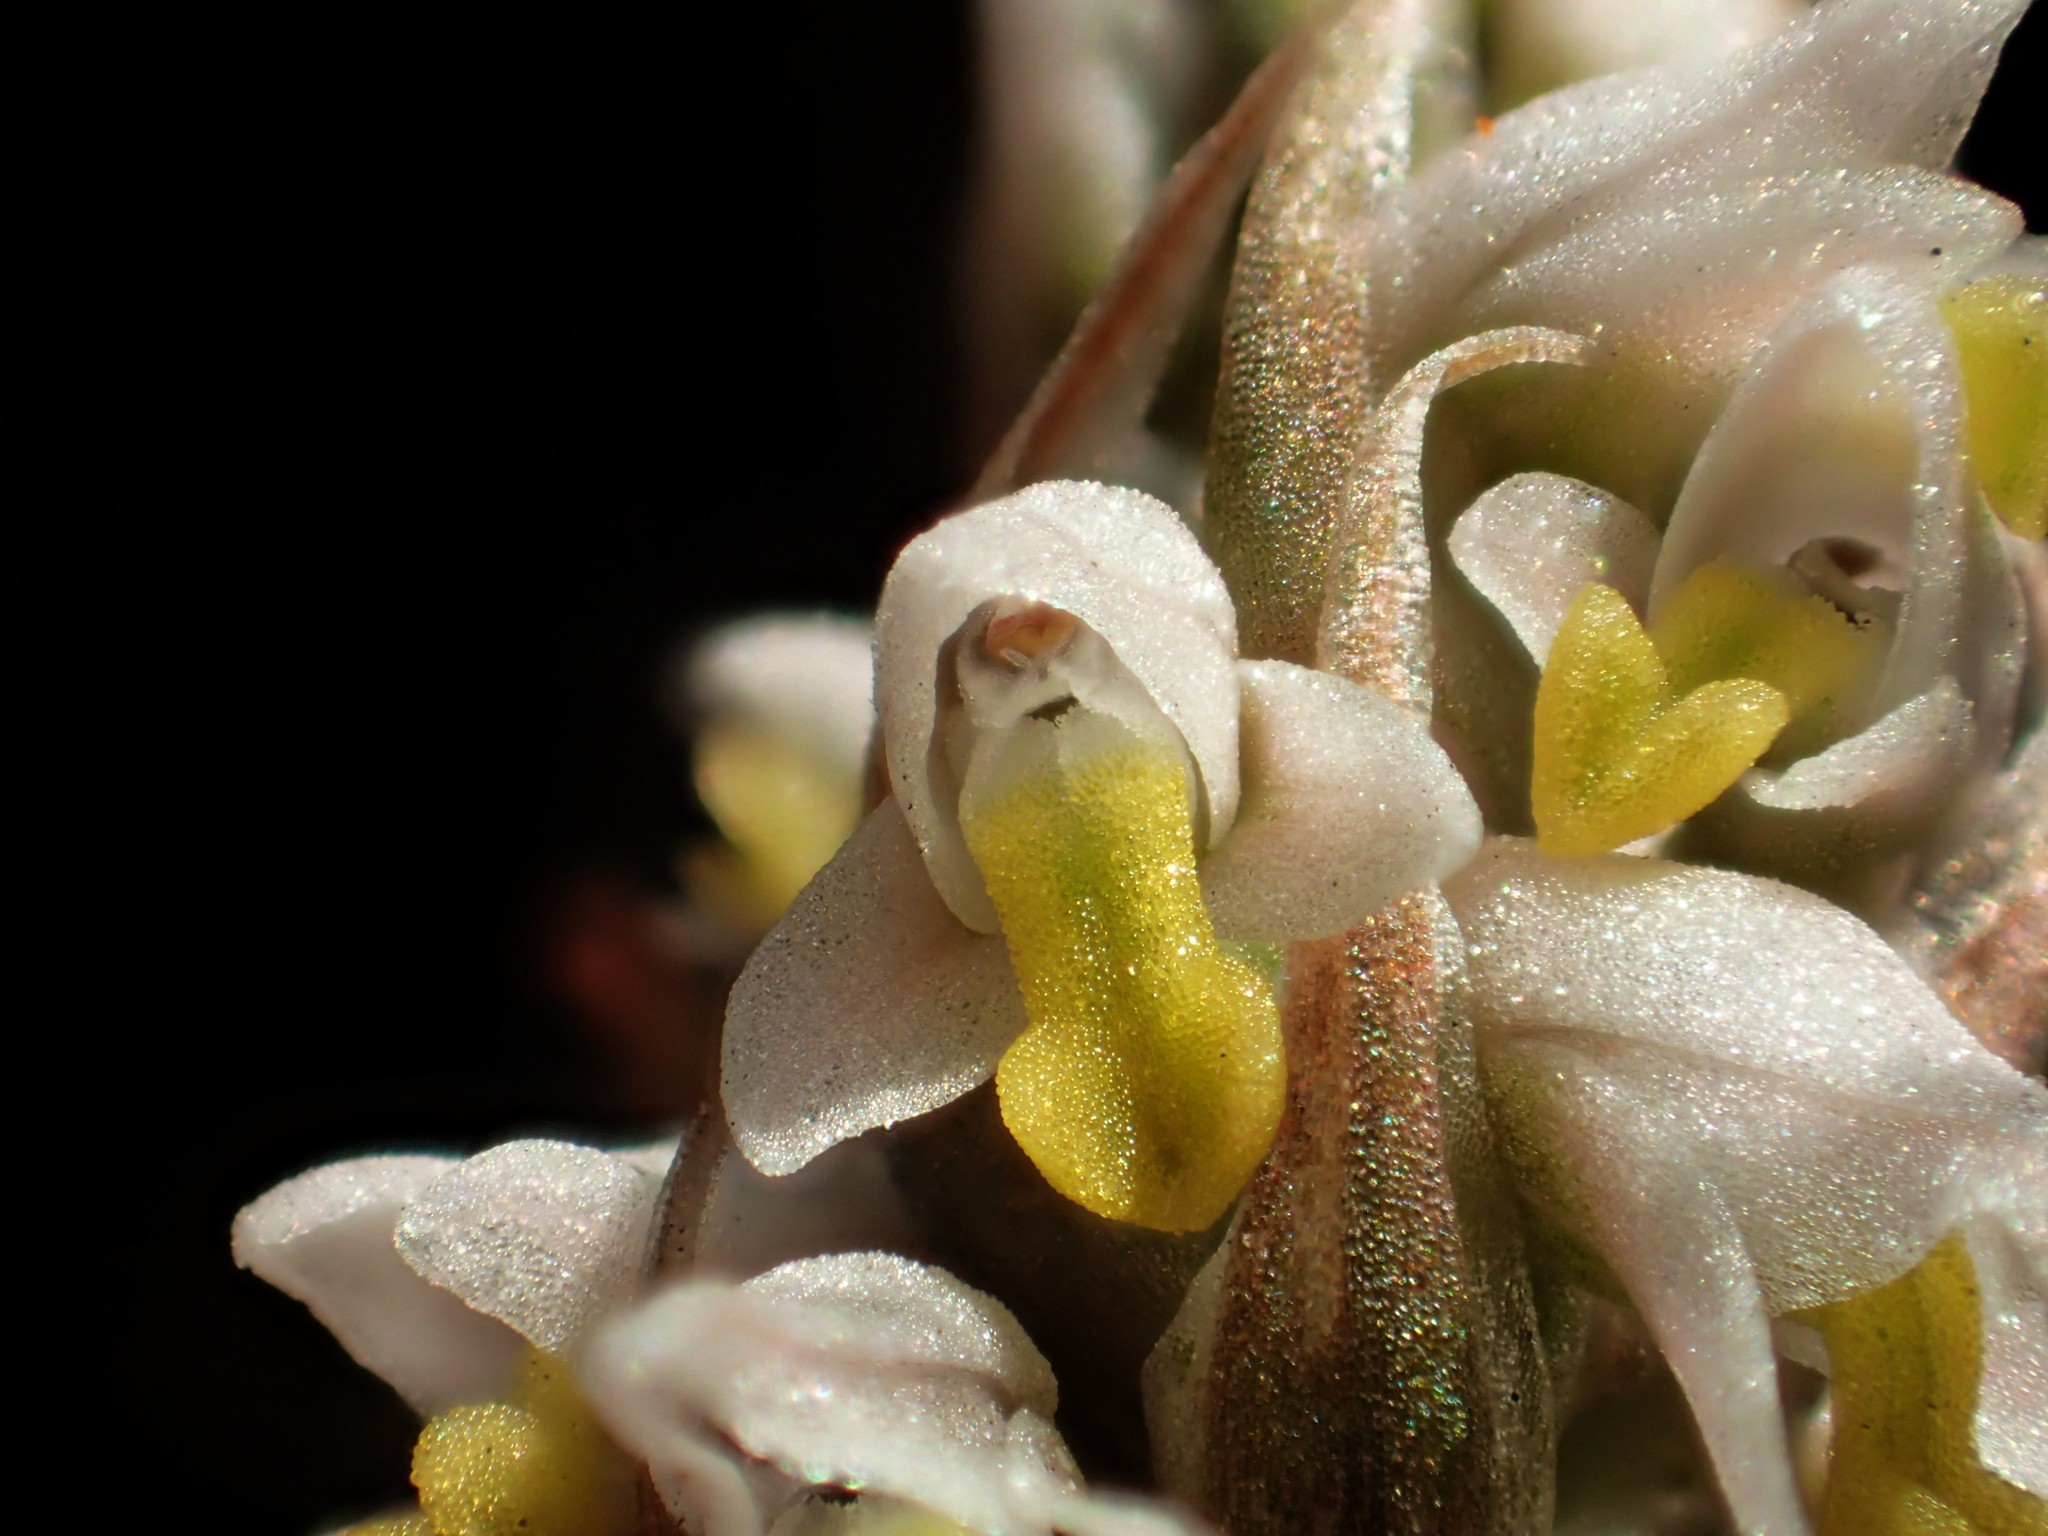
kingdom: Plantae
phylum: Tracheophyta
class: Liliopsida
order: Asparagales
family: Orchidaceae
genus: Zeuxine
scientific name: Zeuxine strateumatica
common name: Soldier's orchid
